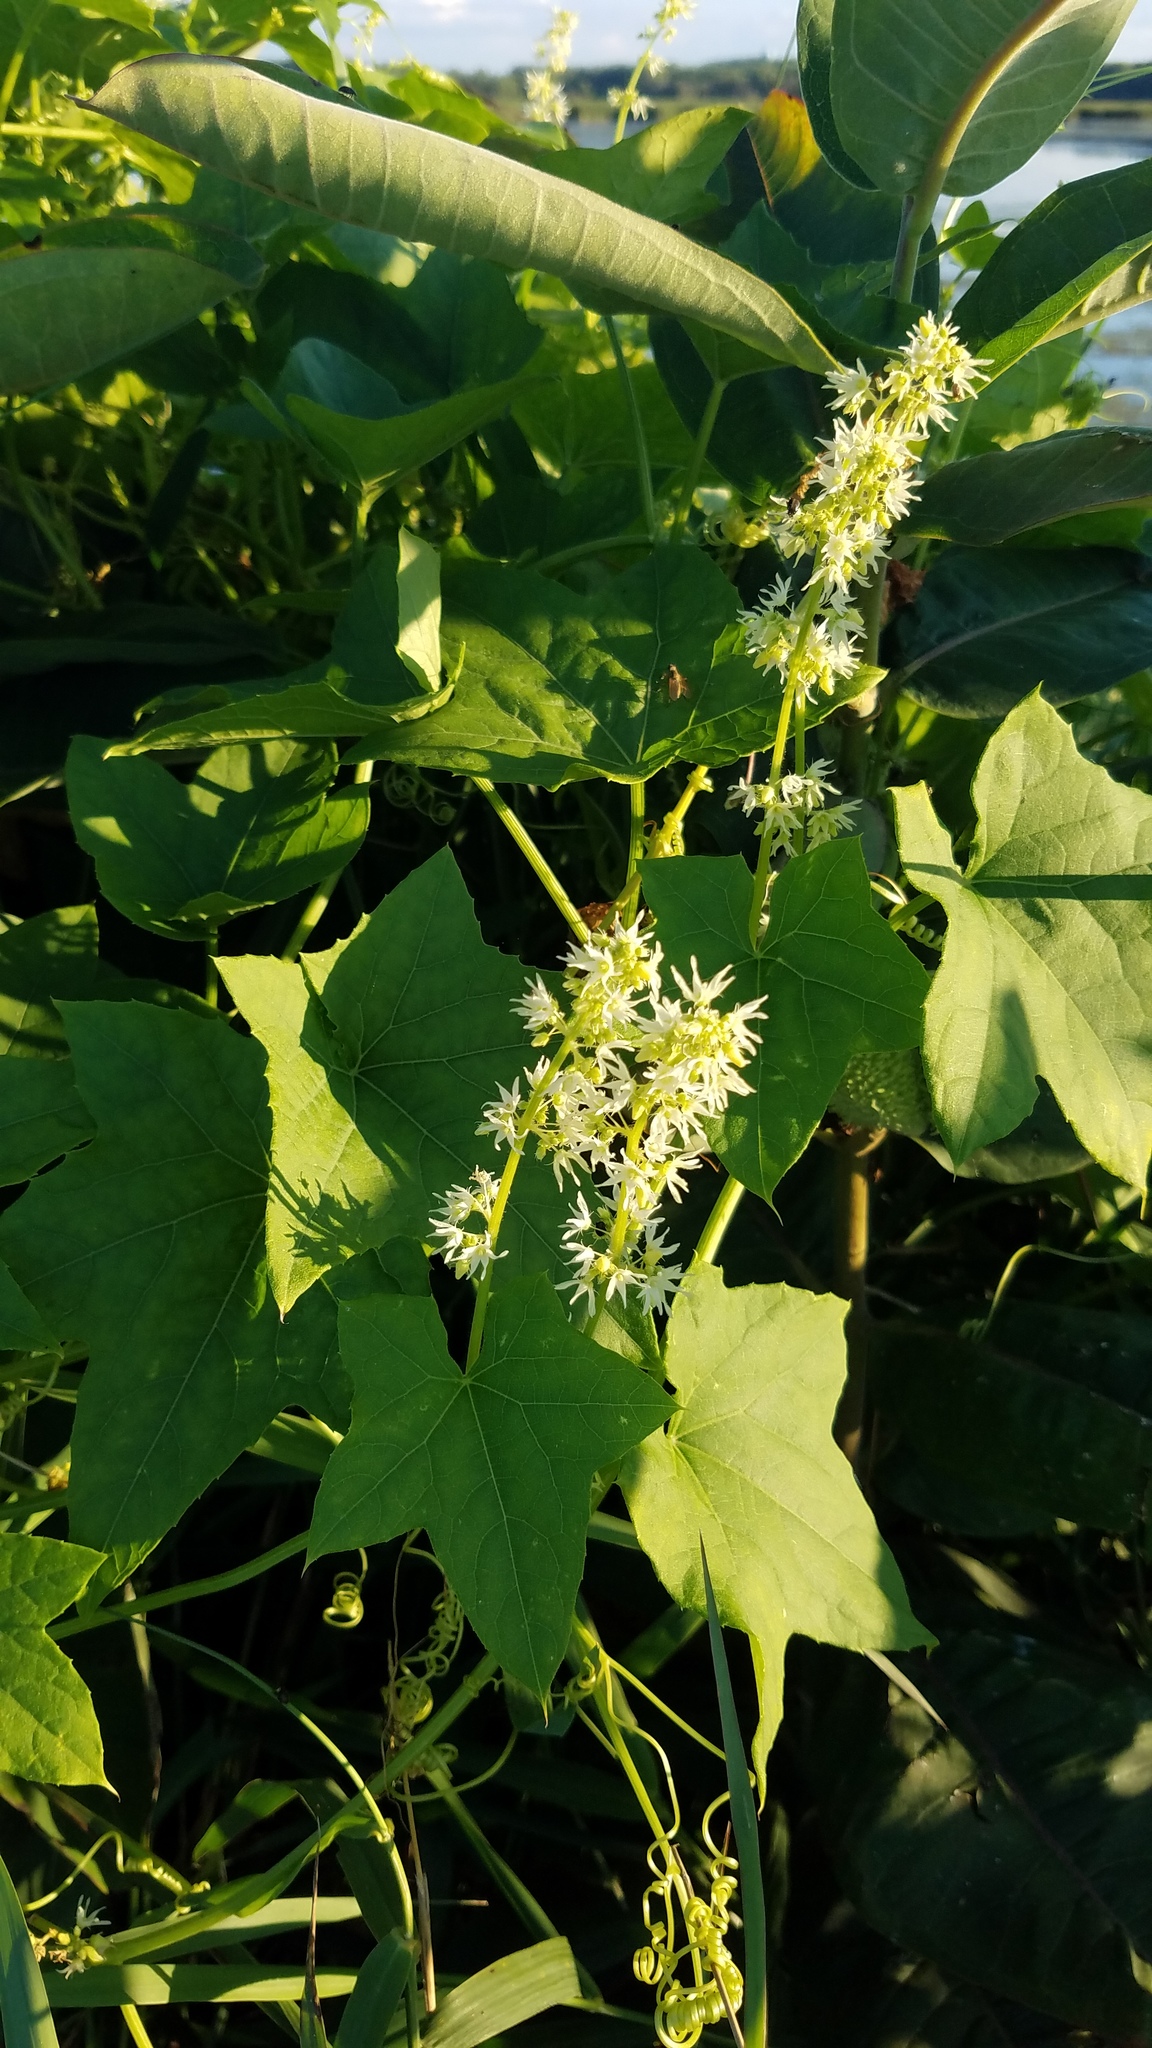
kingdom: Plantae
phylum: Tracheophyta
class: Magnoliopsida
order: Cucurbitales
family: Cucurbitaceae
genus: Echinocystis
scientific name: Echinocystis lobata
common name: Wild cucumber
